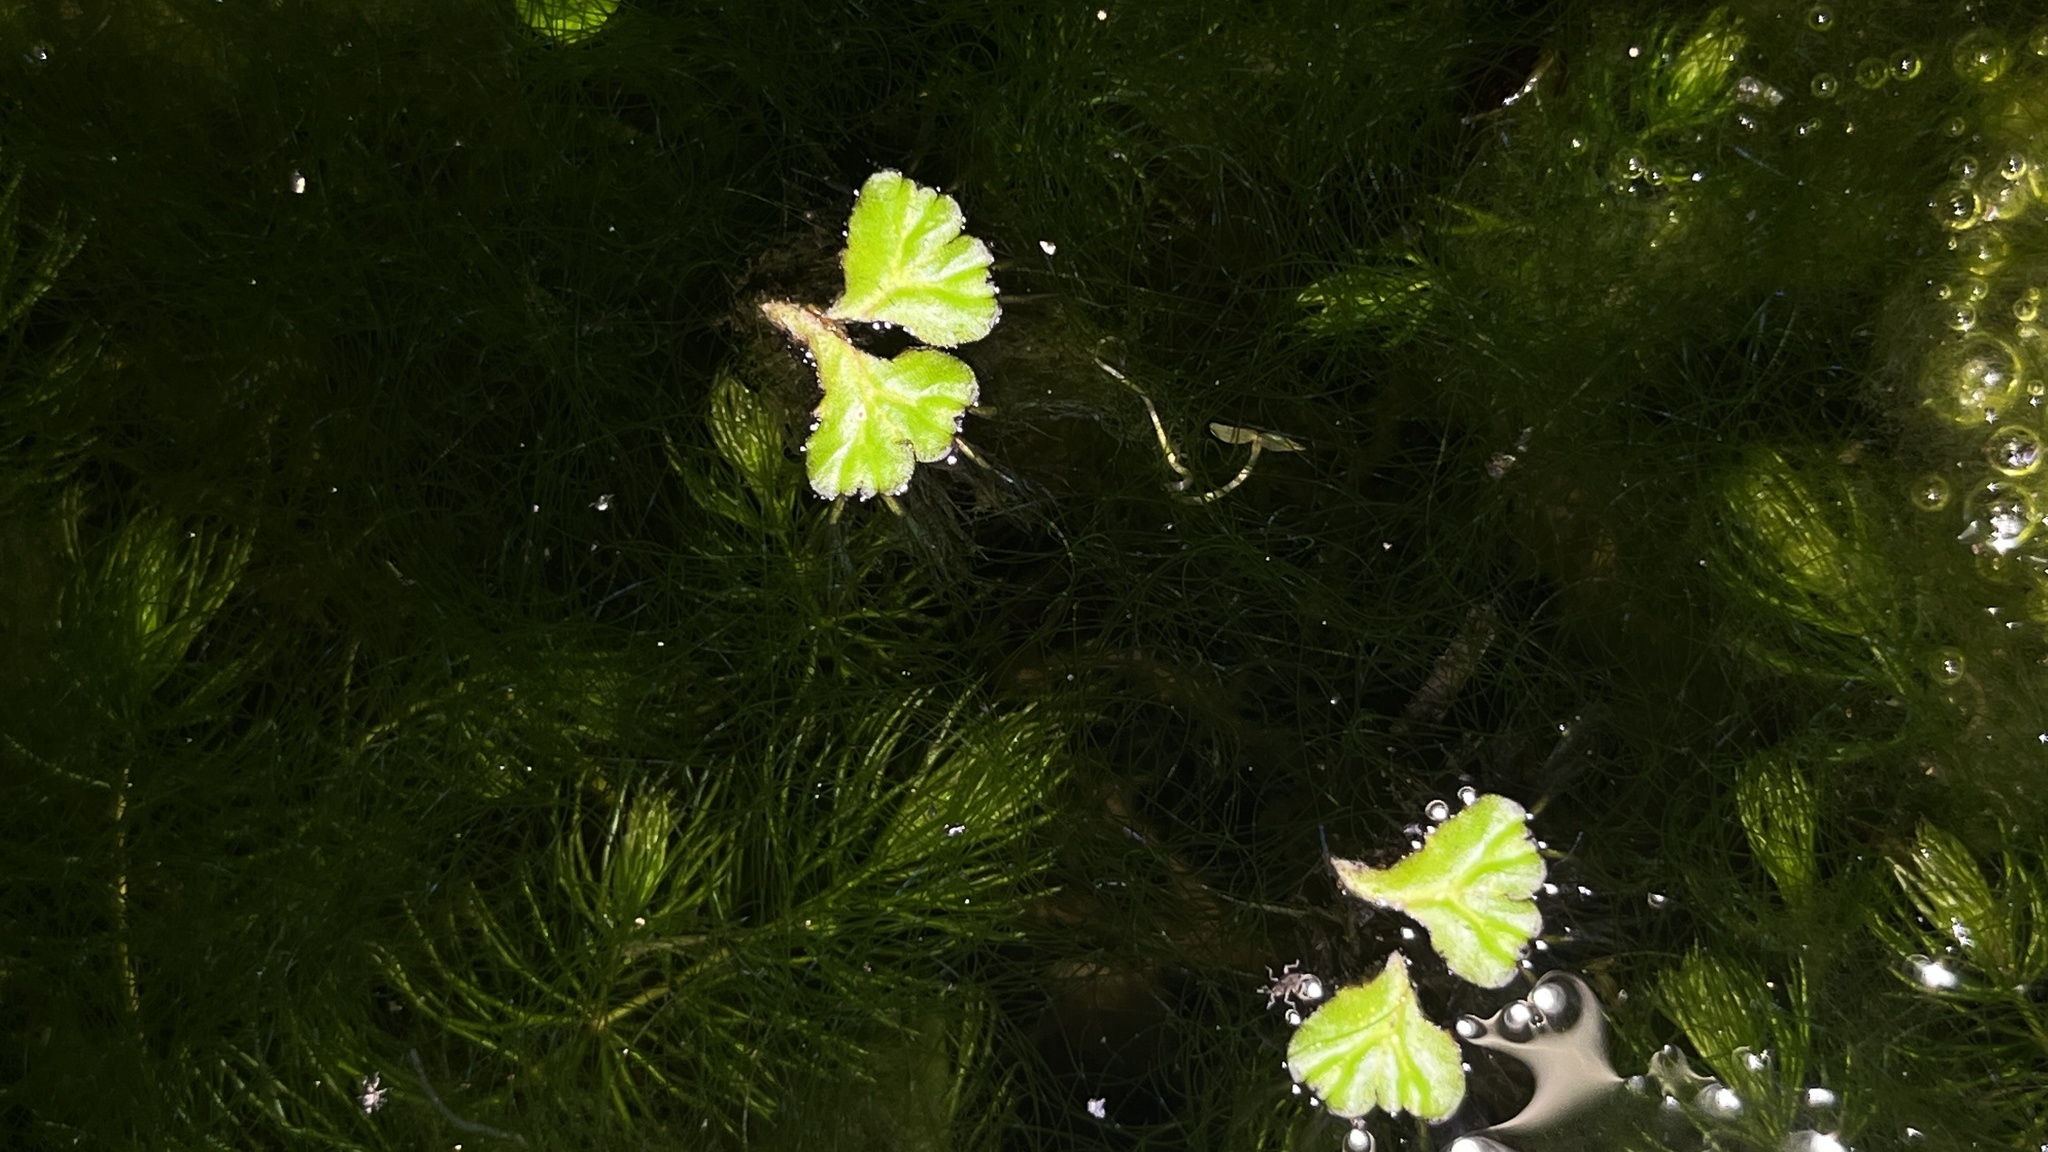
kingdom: Plantae
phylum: Marchantiophyta
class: Marchantiopsida
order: Marchantiales
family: Ricciaceae
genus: Ricciocarpos
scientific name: Ricciocarpos natans
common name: Purple-fringed liverwort
